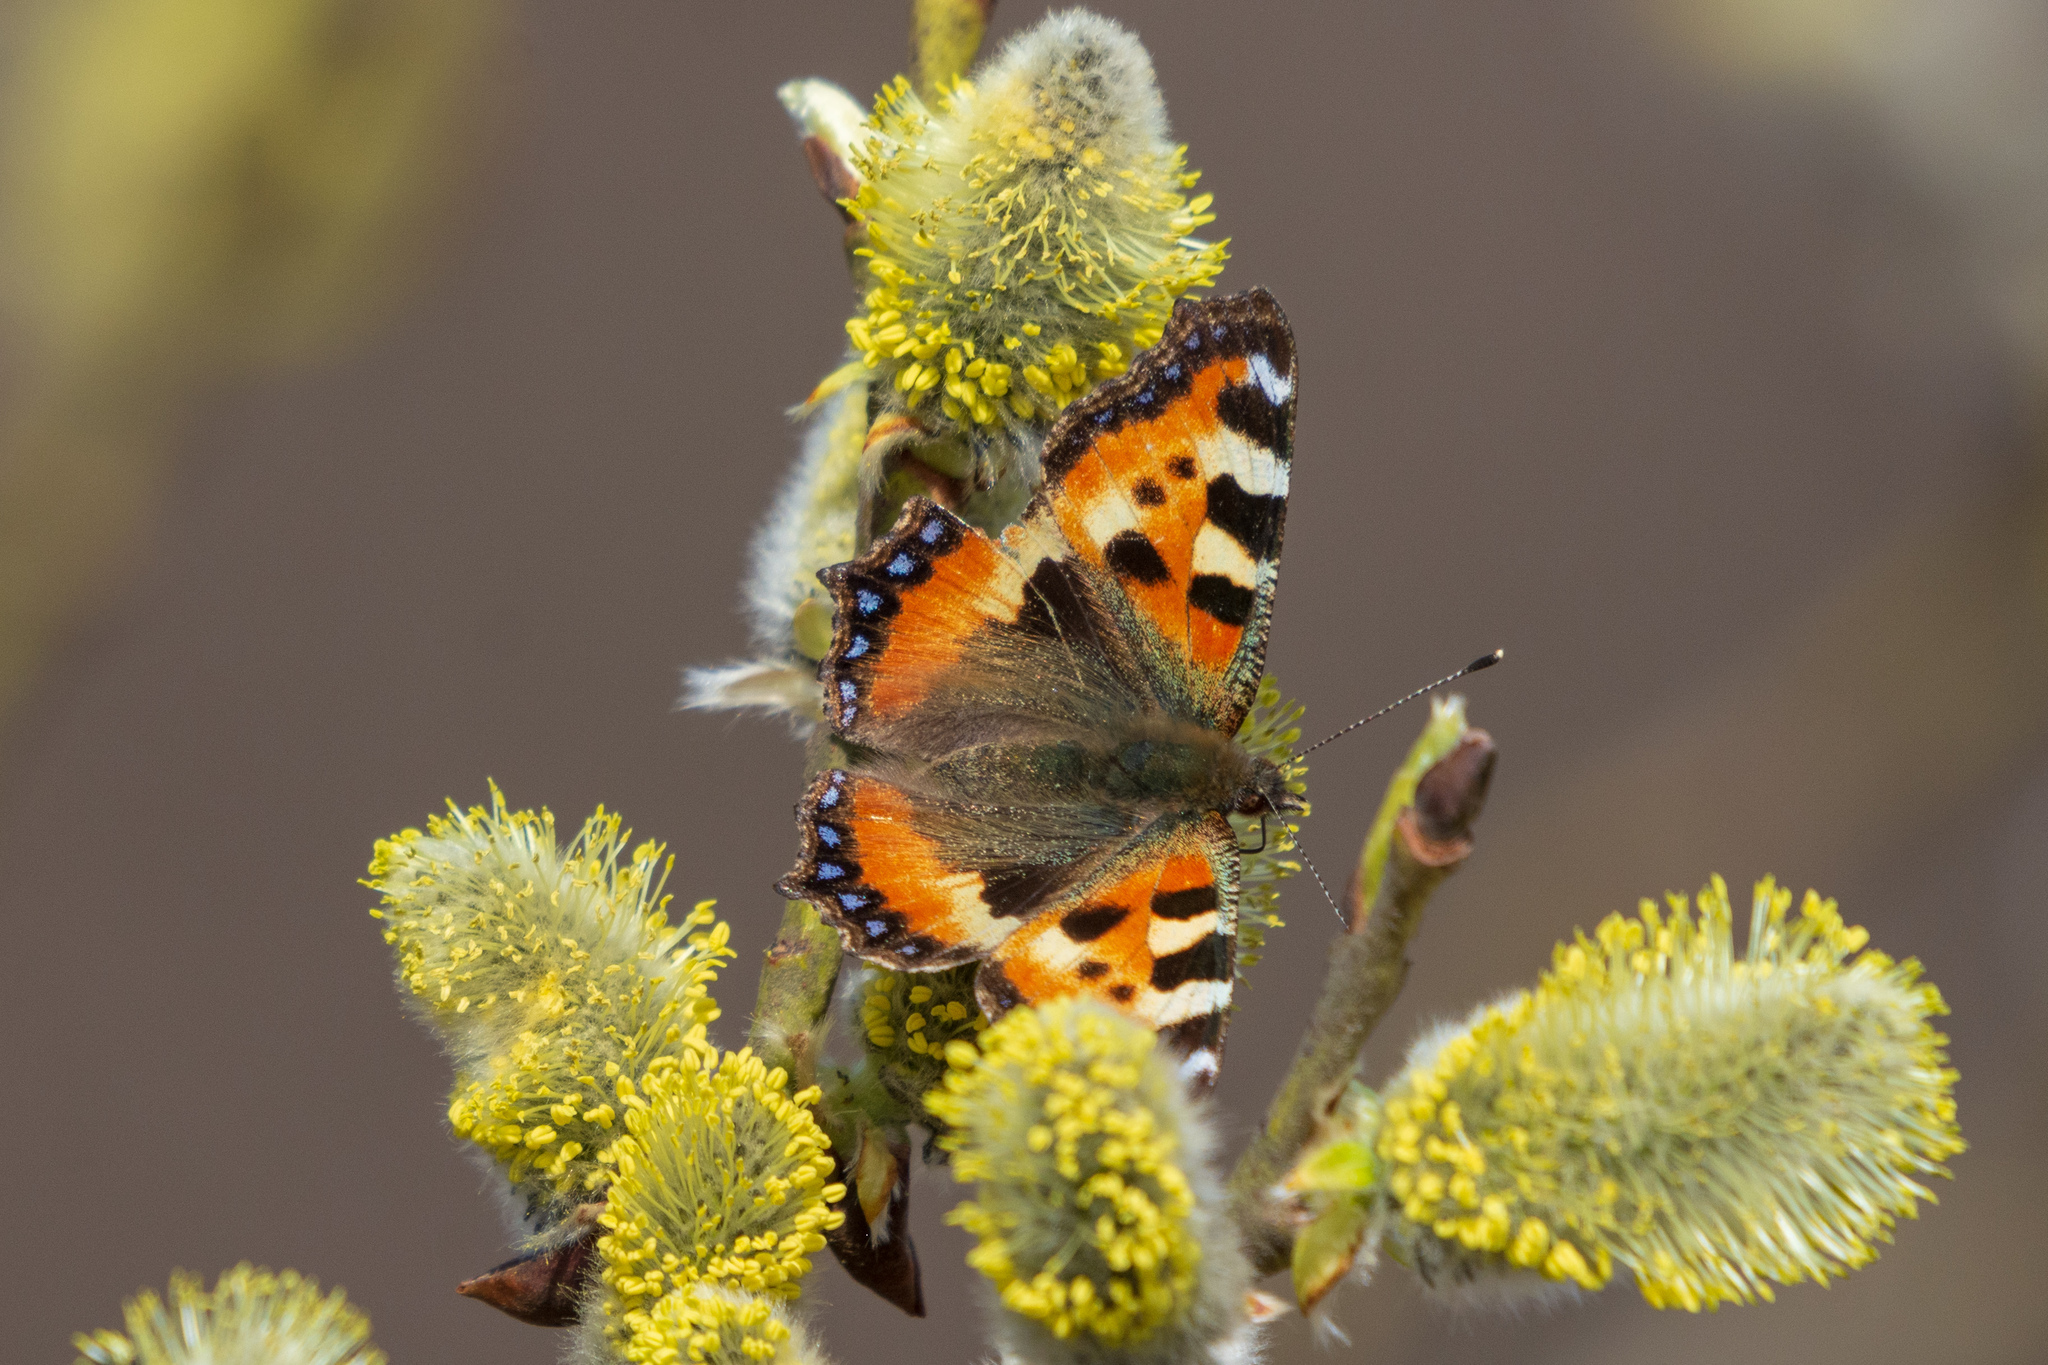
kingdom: Animalia
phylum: Arthropoda
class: Insecta
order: Lepidoptera
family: Nymphalidae
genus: Aglais
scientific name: Aglais urticae
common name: Small tortoiseshell
